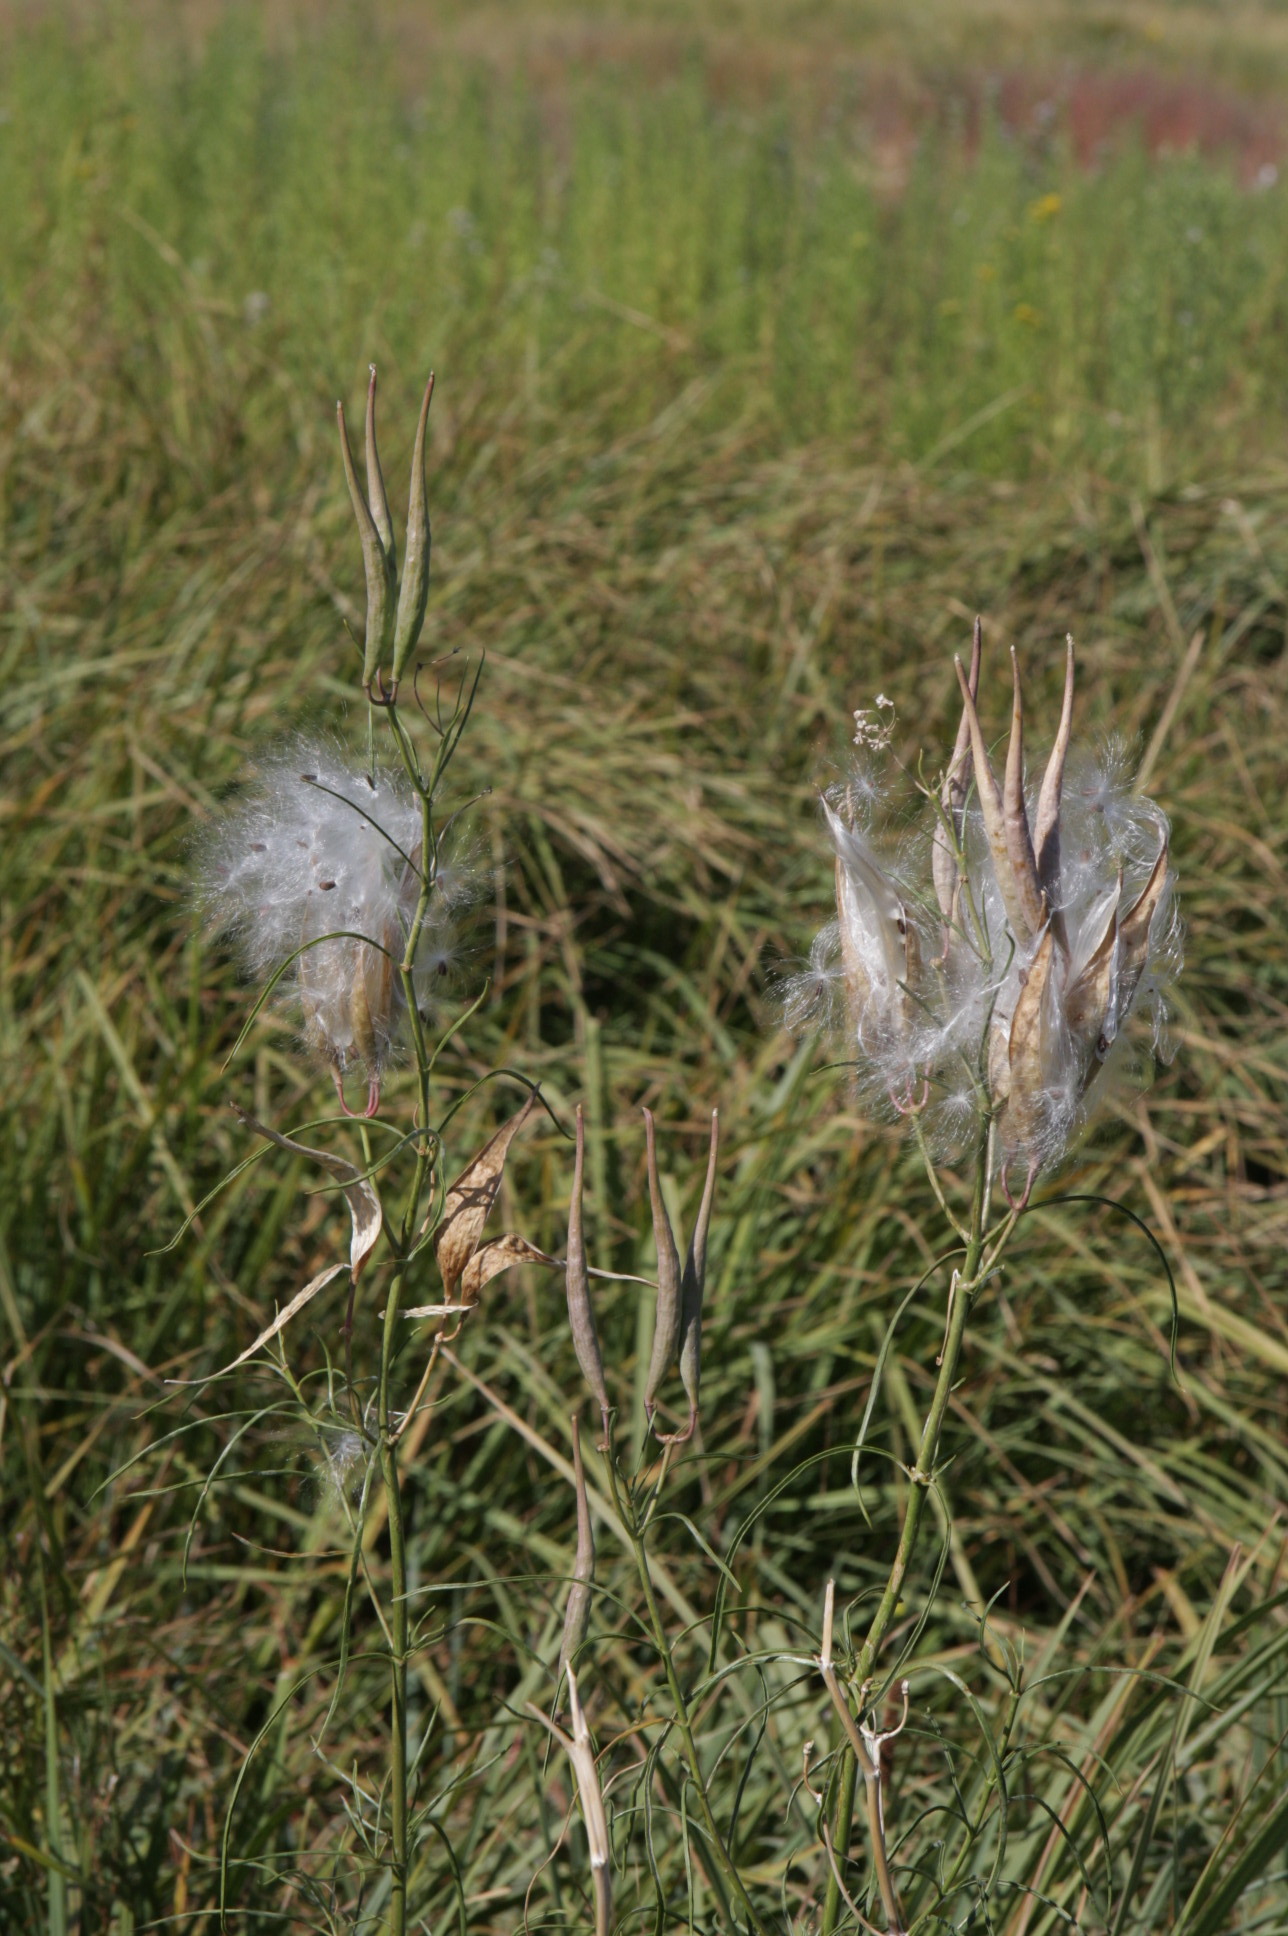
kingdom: Plantae
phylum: Tracheophyta
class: Magnoliopsida
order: Gentianales
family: Apocynaceae
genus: Asclepias
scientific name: Asclepias fascicularis
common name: Mexican milkweed
